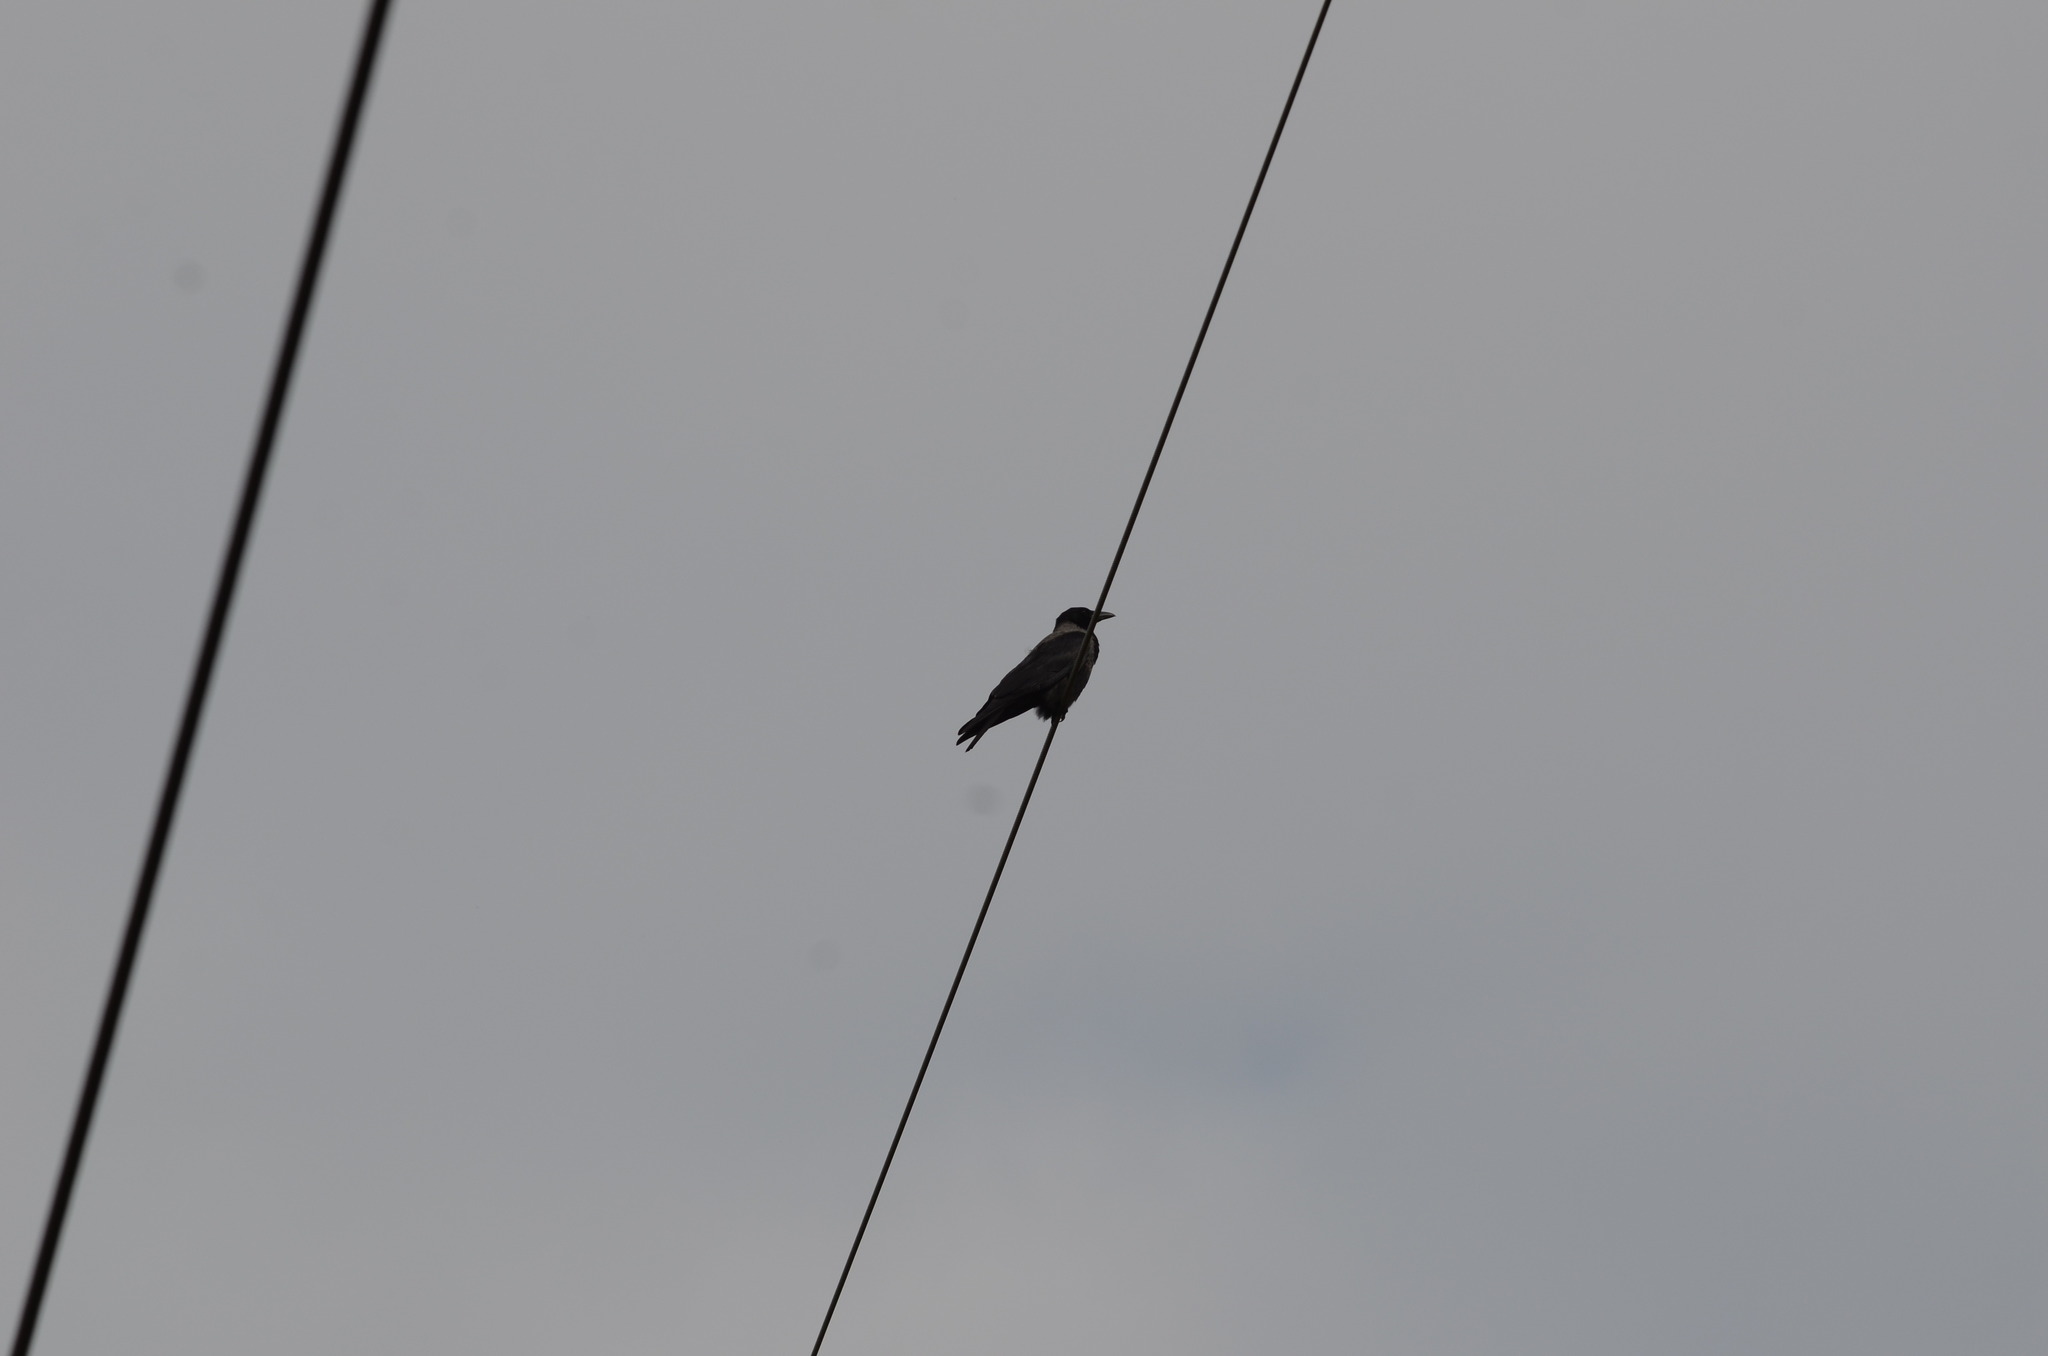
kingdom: Animalia
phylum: Chordata
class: Aves
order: Passeriformes
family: Corvidae
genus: Corvus
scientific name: Corvus
